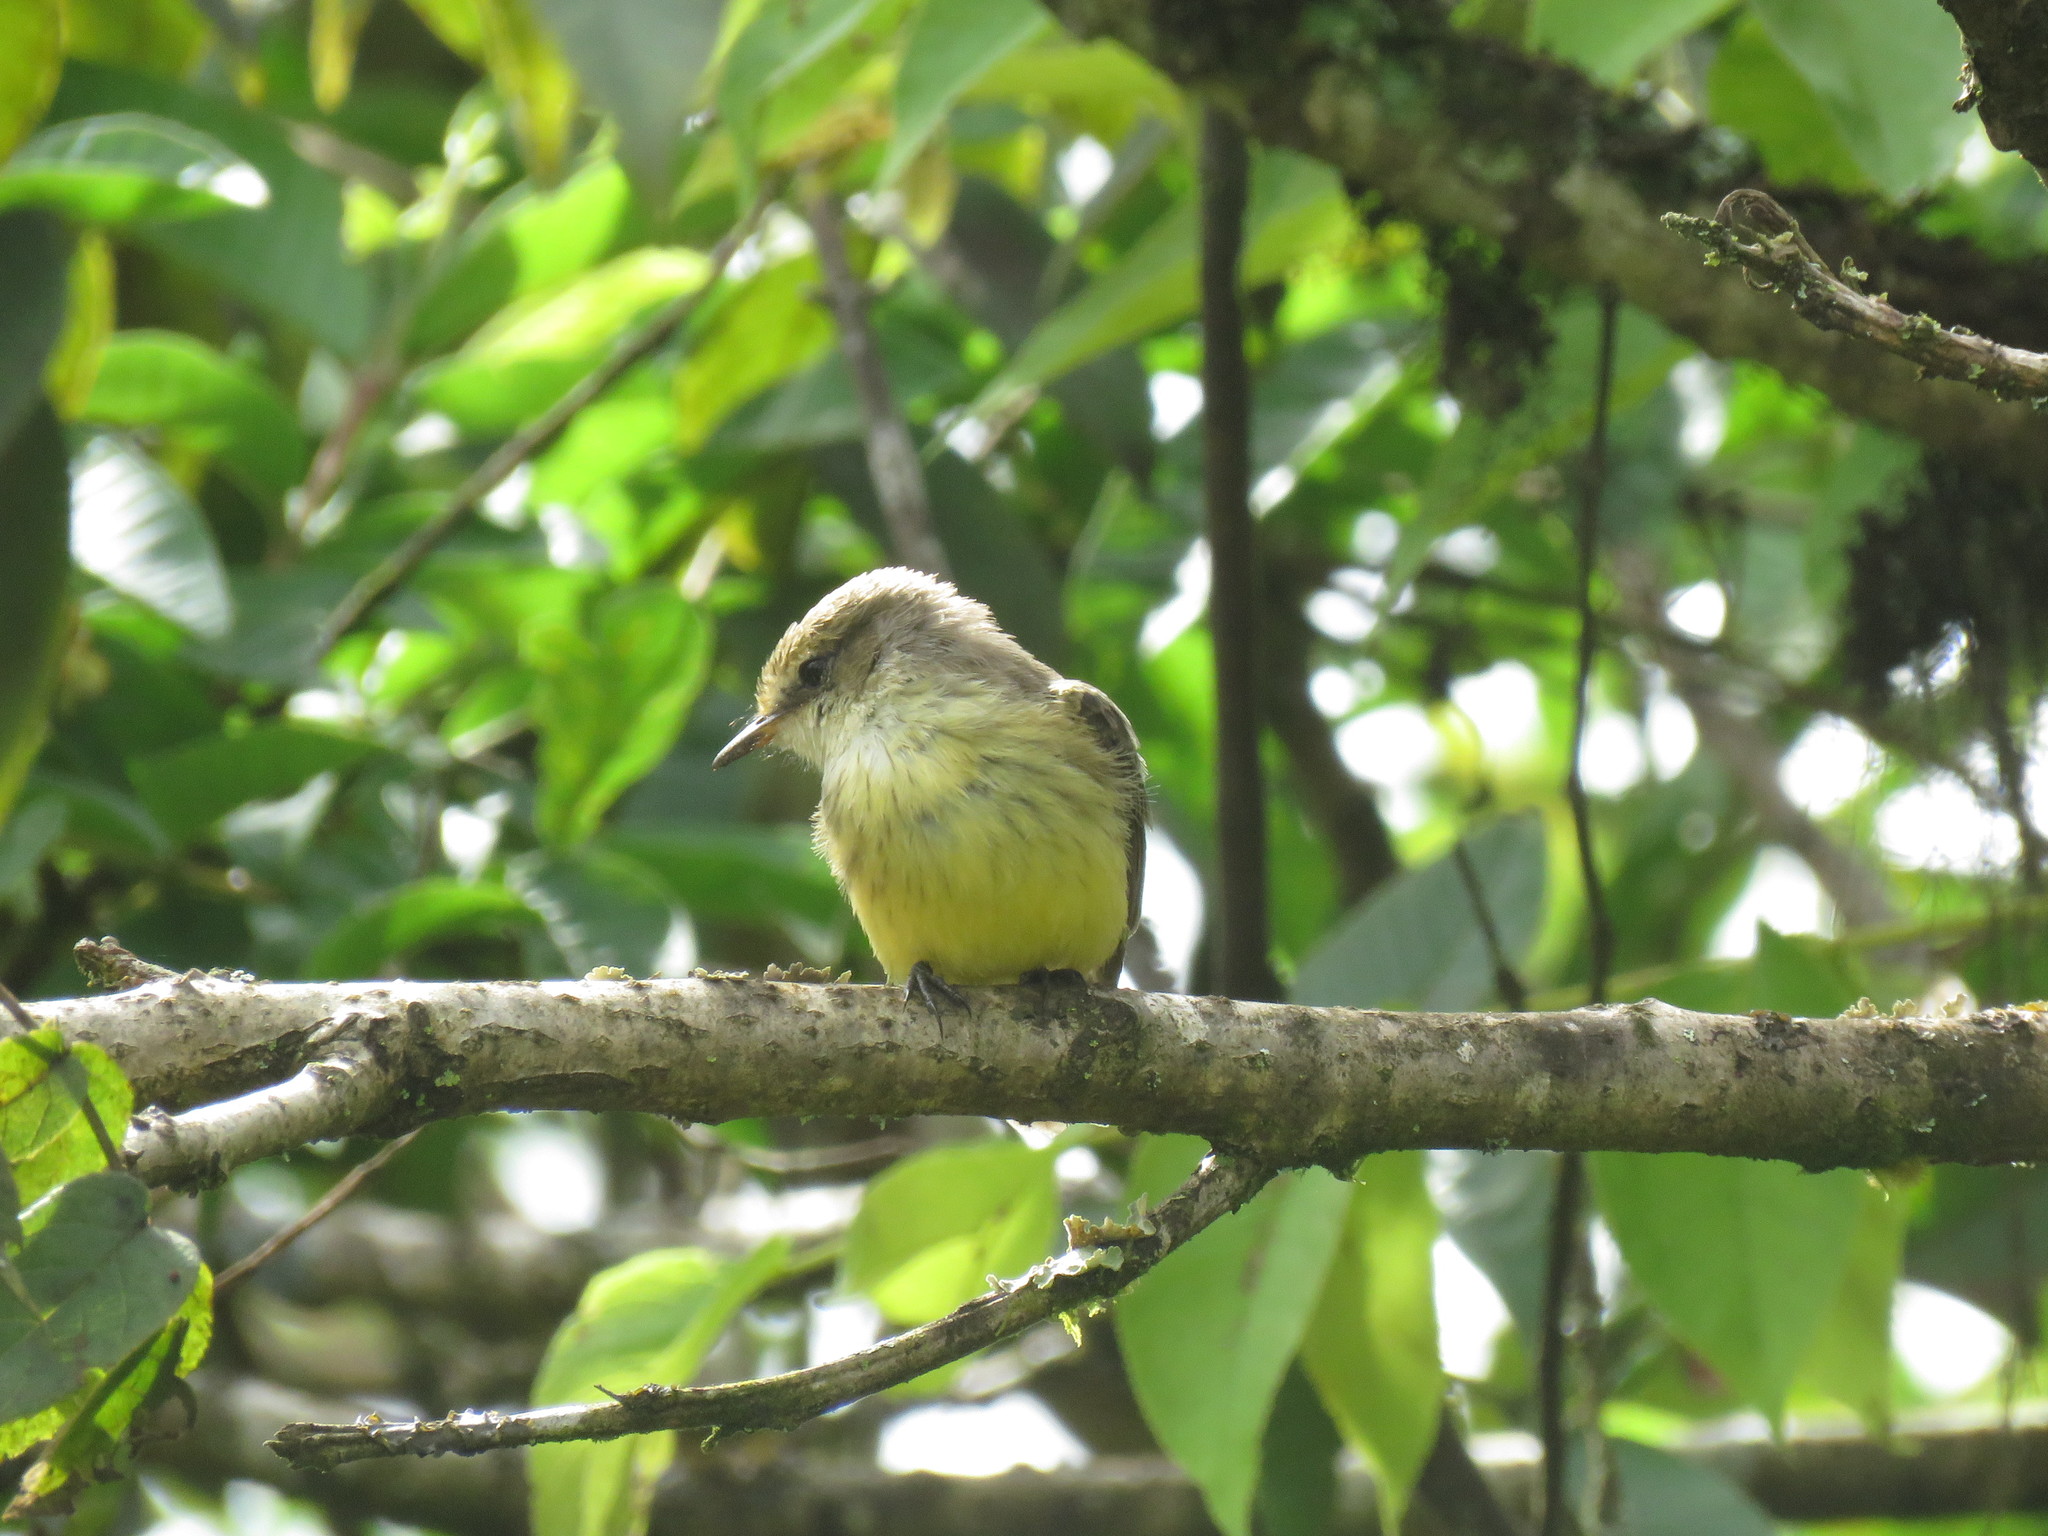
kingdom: Animalia
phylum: Chordata
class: Aves
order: Passeriformes
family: Tyrannidae
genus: Pyrocephalus
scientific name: Pyrocephalus rubinus
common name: Vermilion flycatcher
